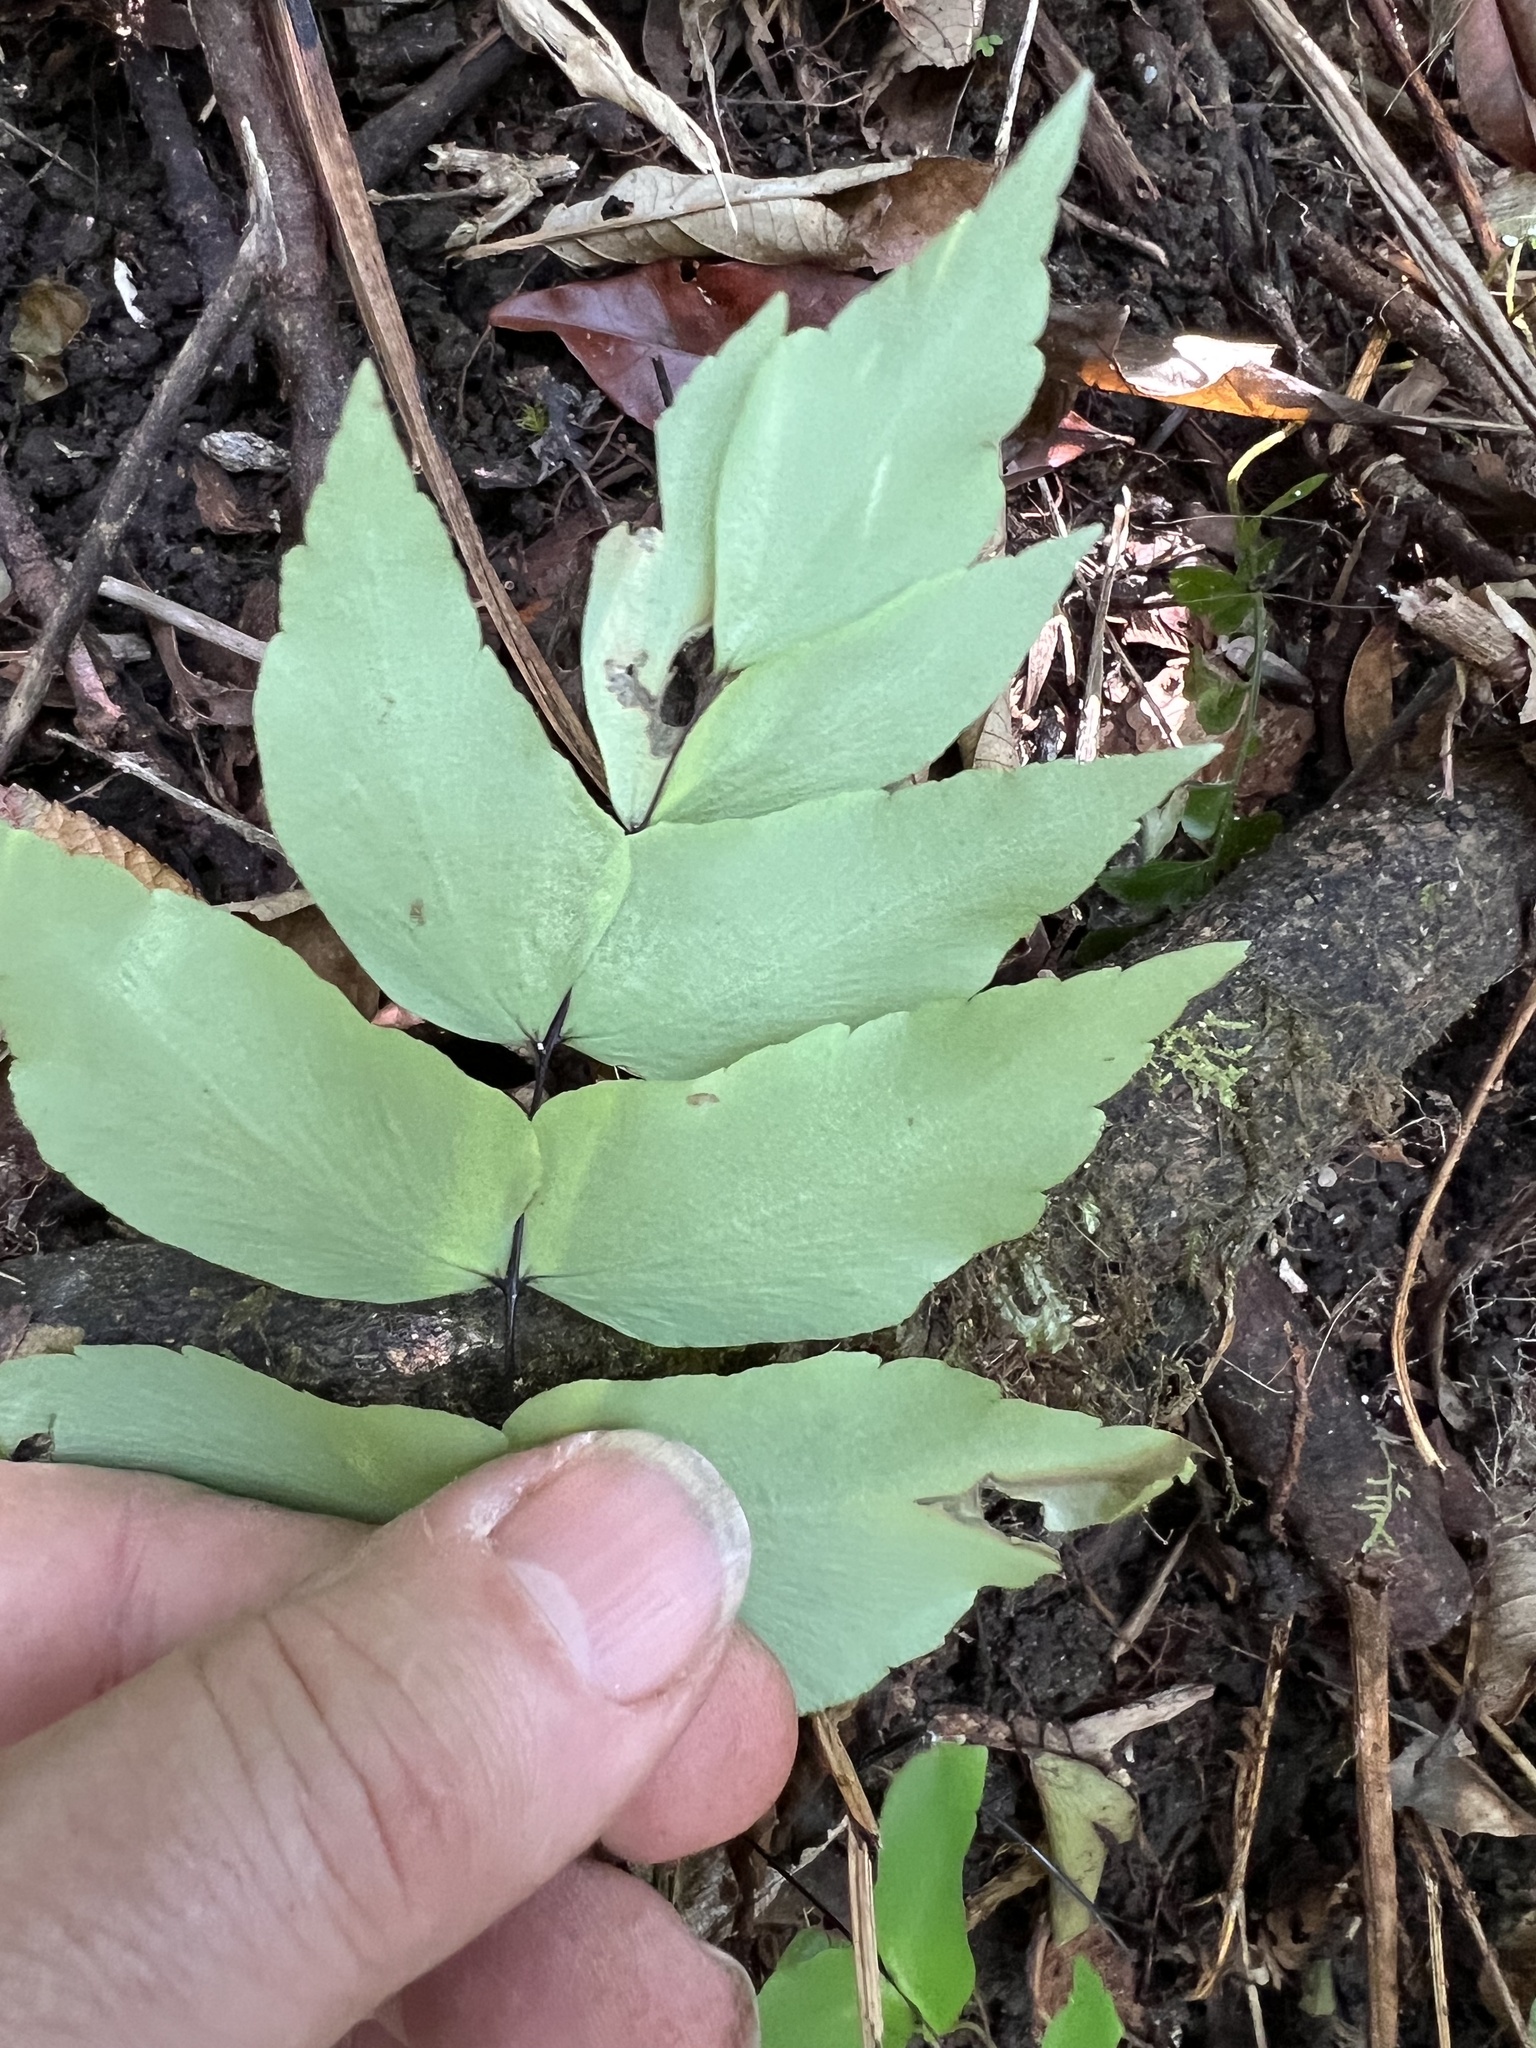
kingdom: Plantae
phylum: Tracheophyta
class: Polypodiopsida
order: Polypodiales
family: Pteridaceae
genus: Adiantum
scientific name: Adiantum macrophyllum
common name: Largeleaf maidenhair
